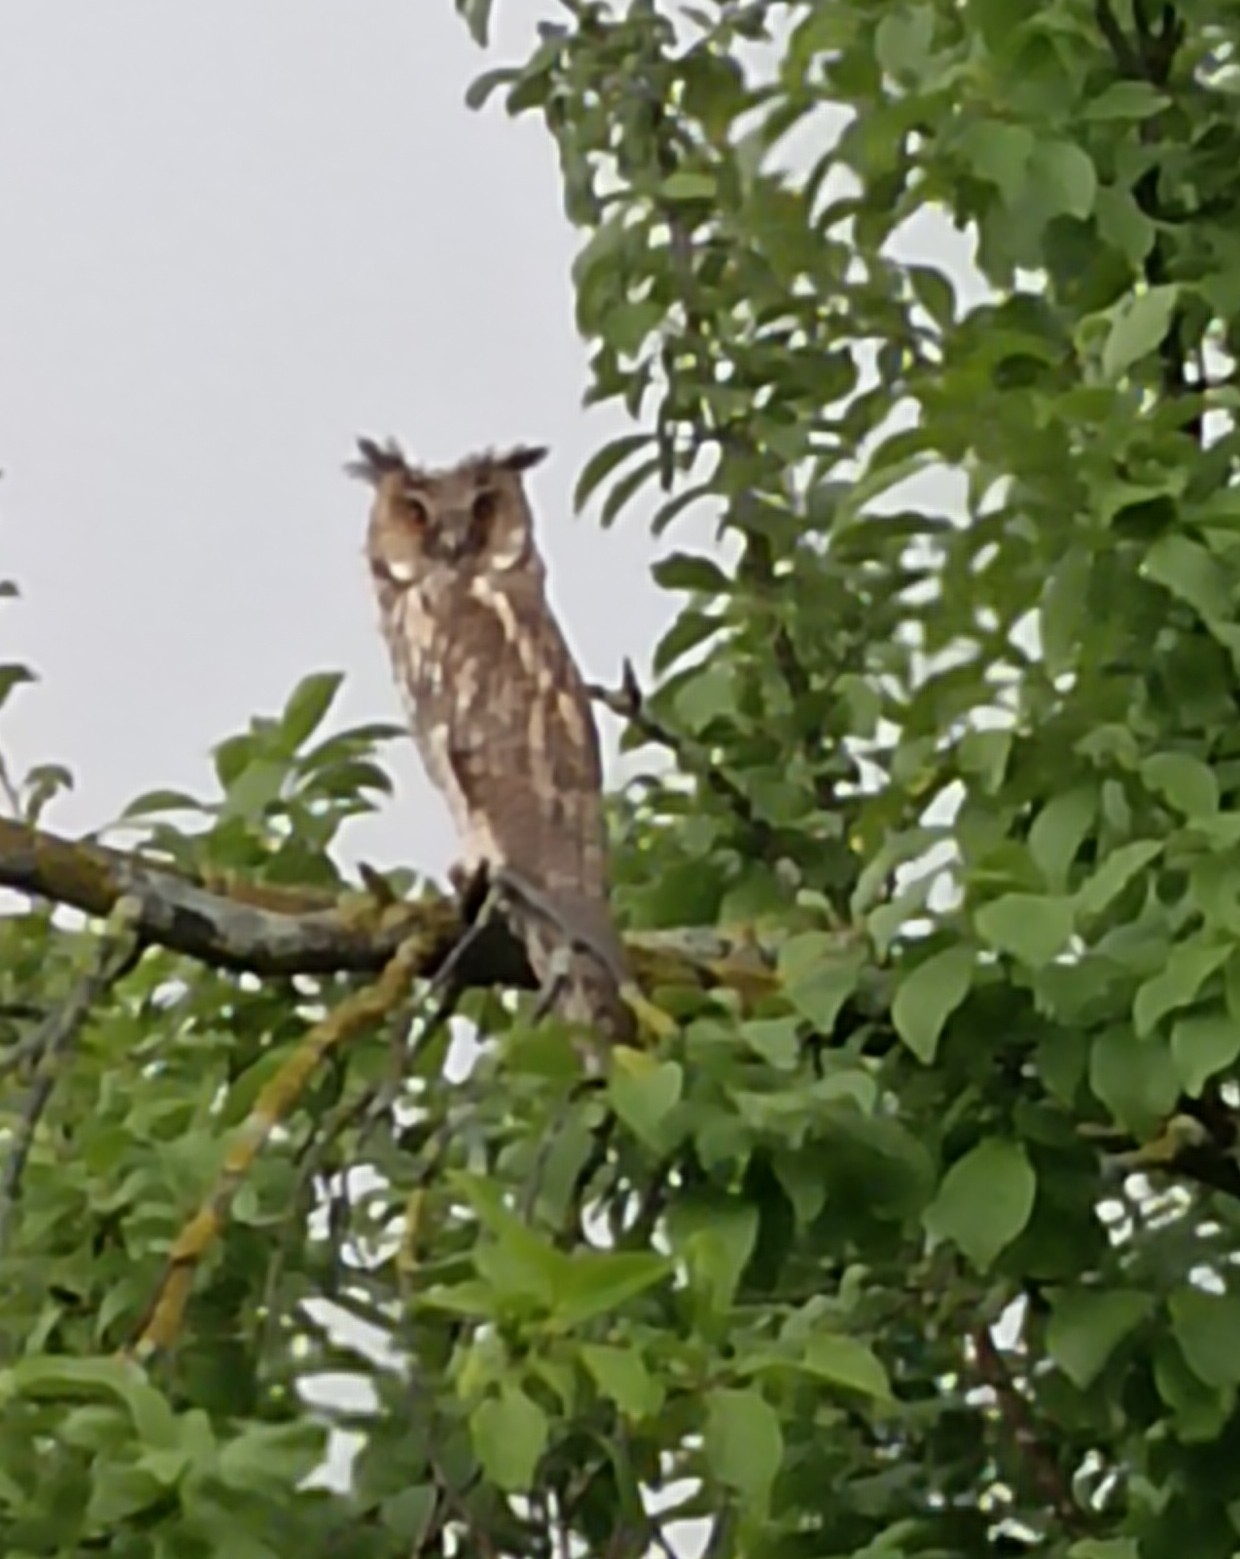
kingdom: Animalia
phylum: Chordata
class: Aves
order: Strigiformes
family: Strigidae
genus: Asio
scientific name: Asio otus
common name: Long-eared owl
